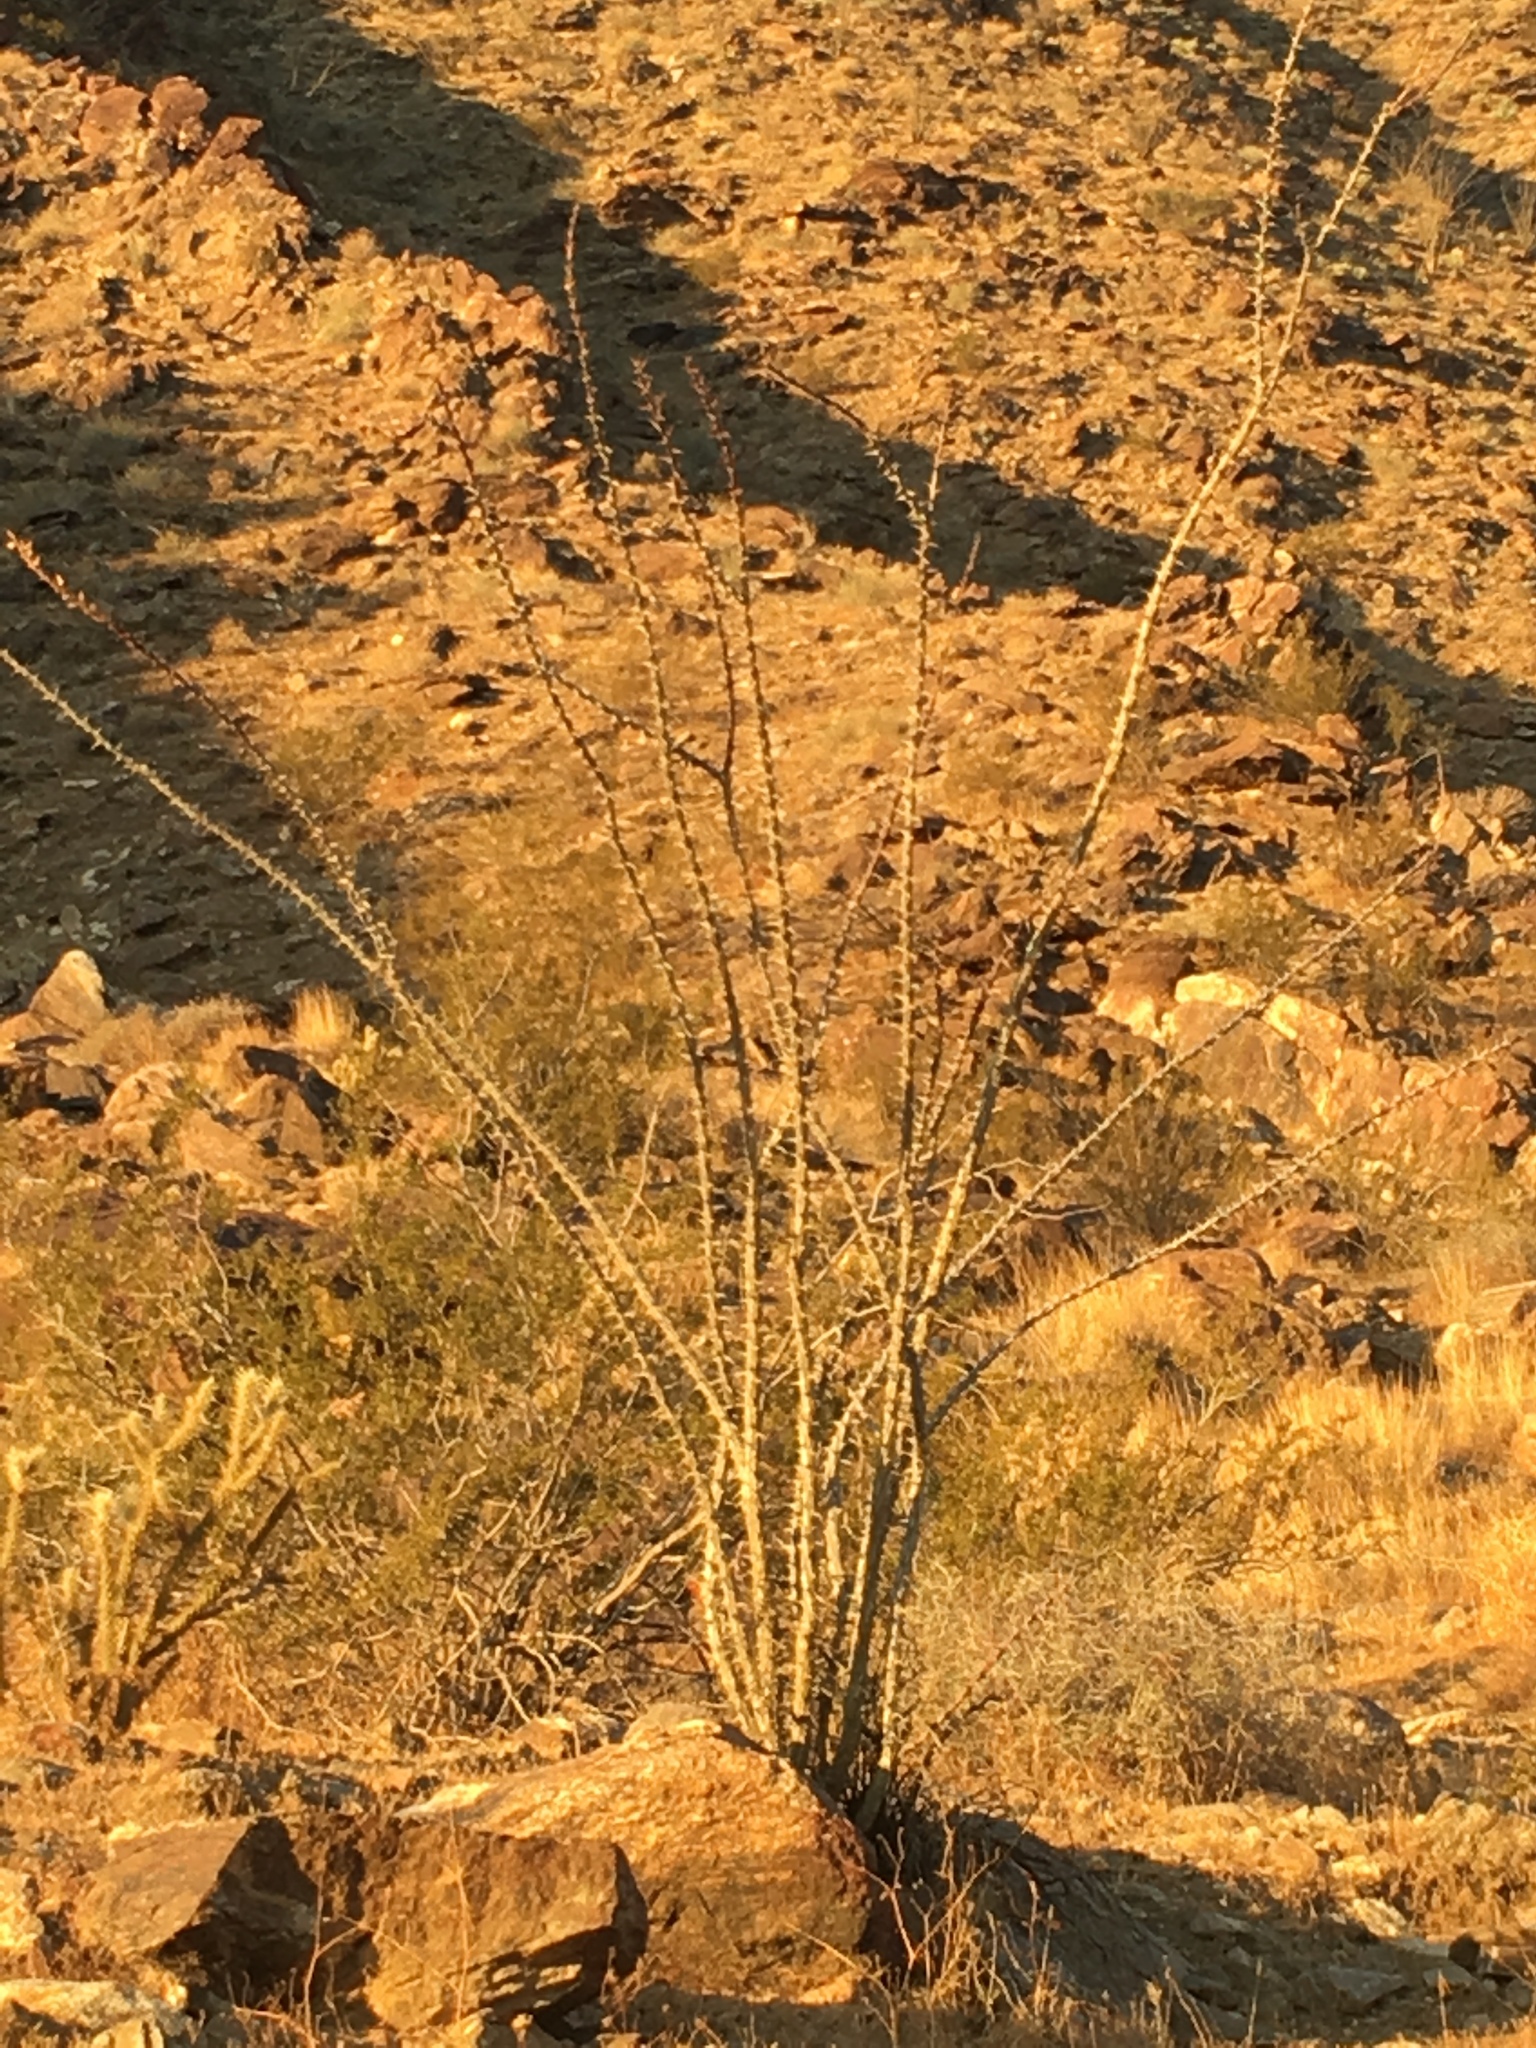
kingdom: Plantae
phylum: Tracheophyta
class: Magnoliopsida
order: Ericales
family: Fouquieriaceae
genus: Fouquieria
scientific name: Fouquieria splendens
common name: Vine-cactus
